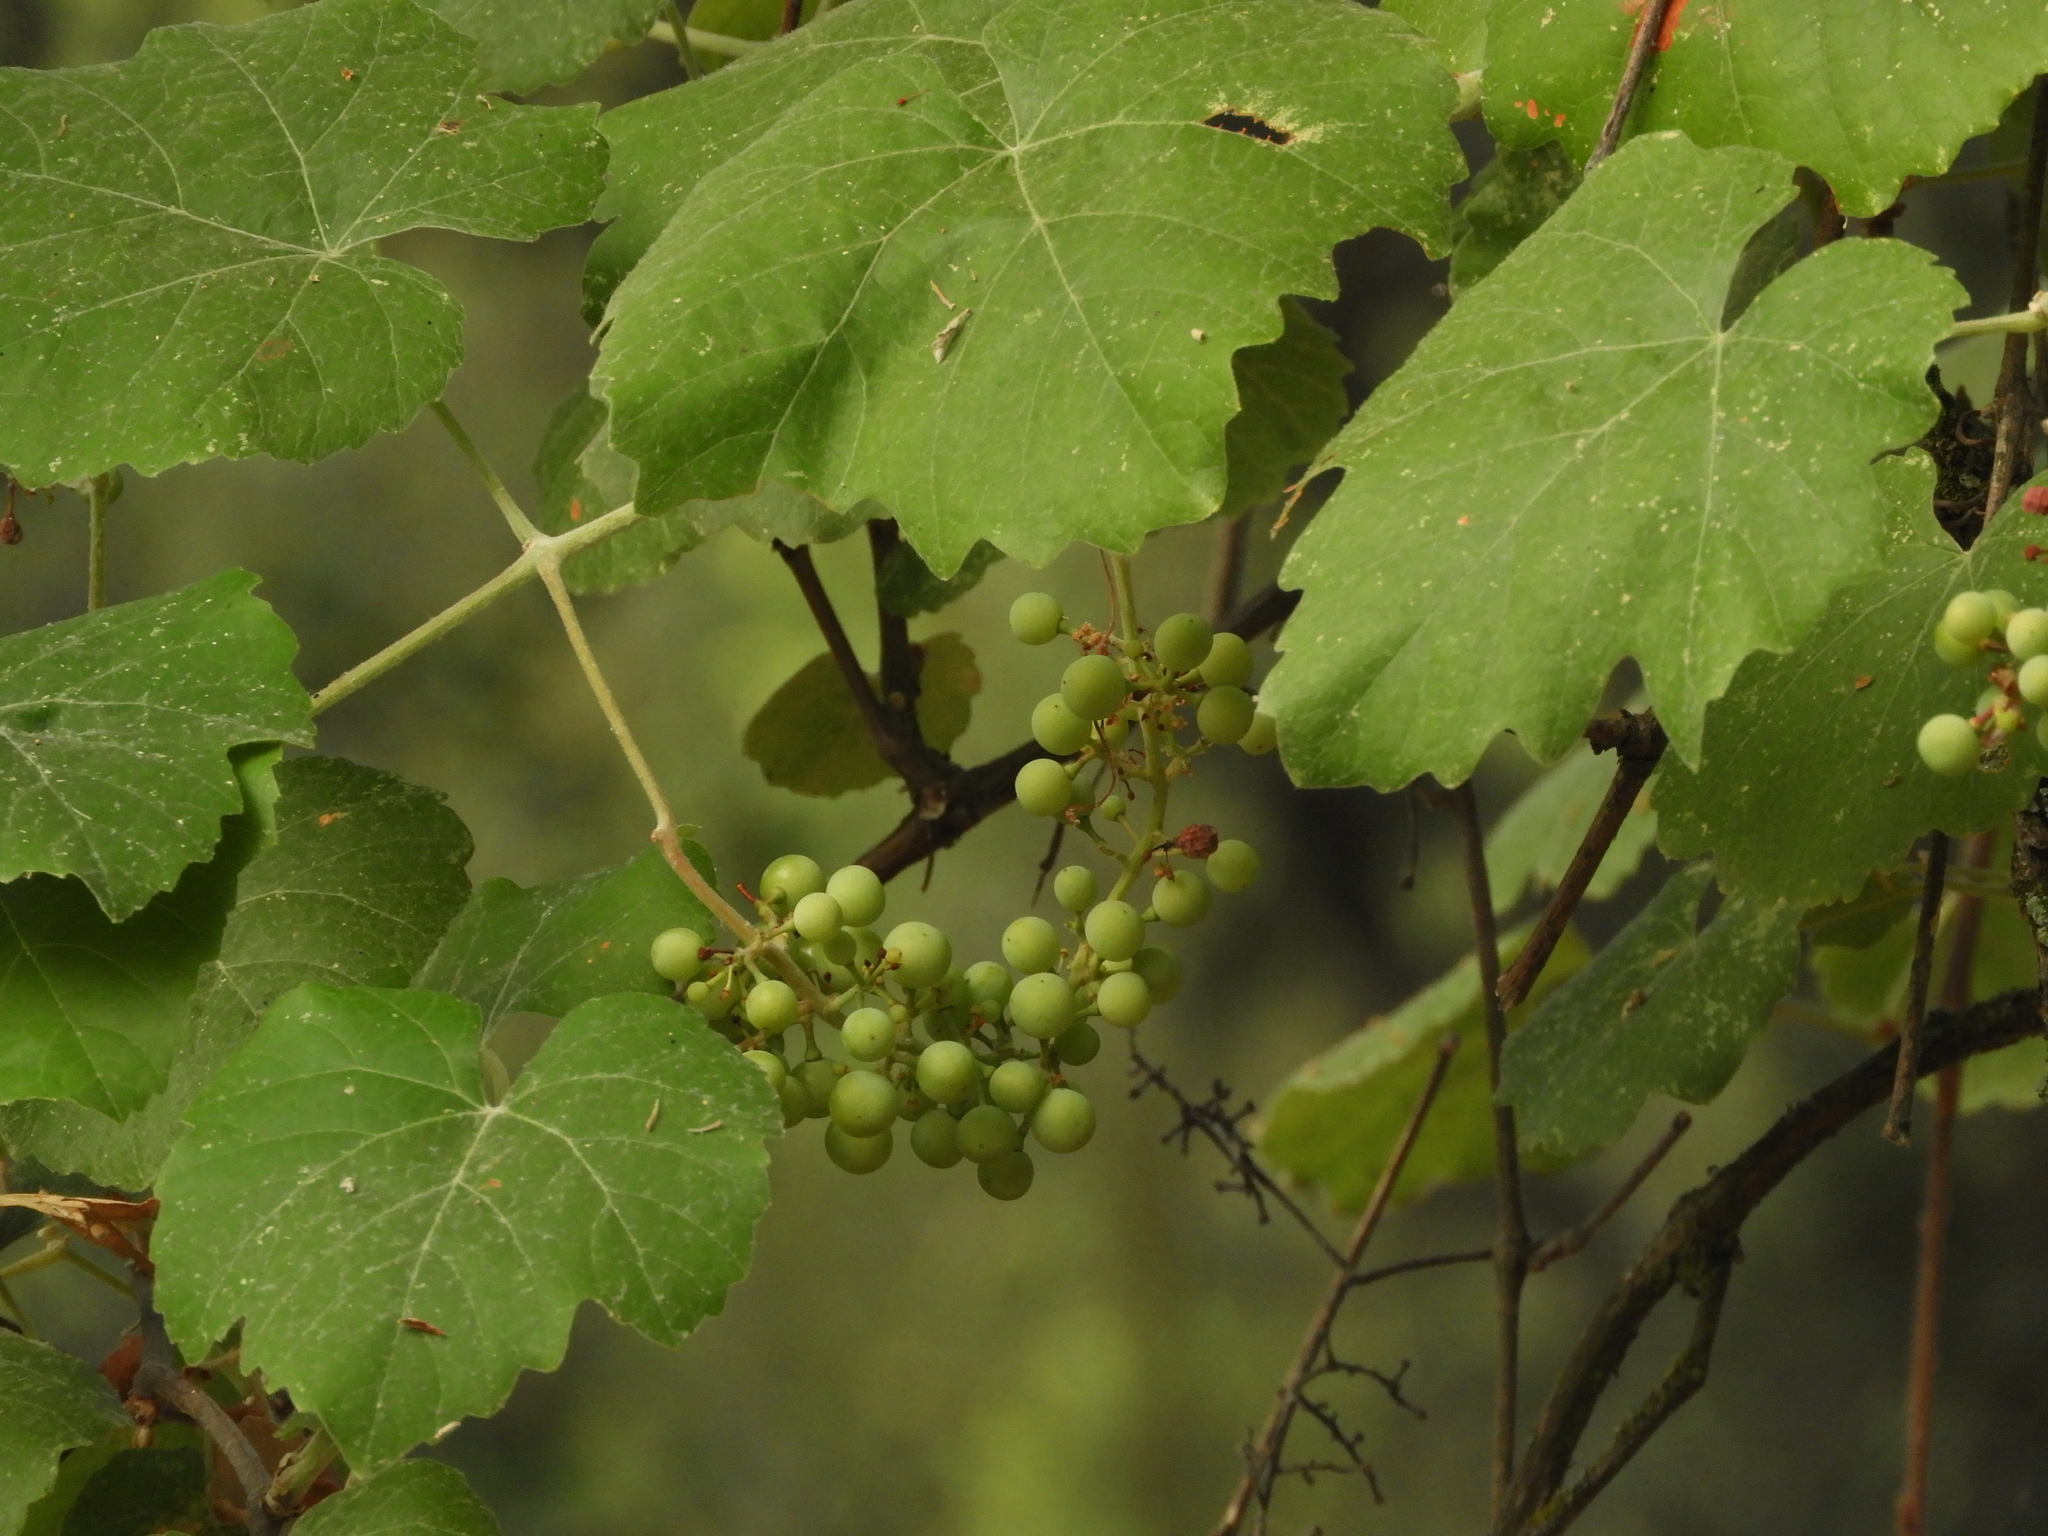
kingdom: Plantae
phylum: Tracheophyta
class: Magnoliopsida
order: Vitales
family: Vitaceae
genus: Vitis
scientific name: Vitis californica
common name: California wild grape
